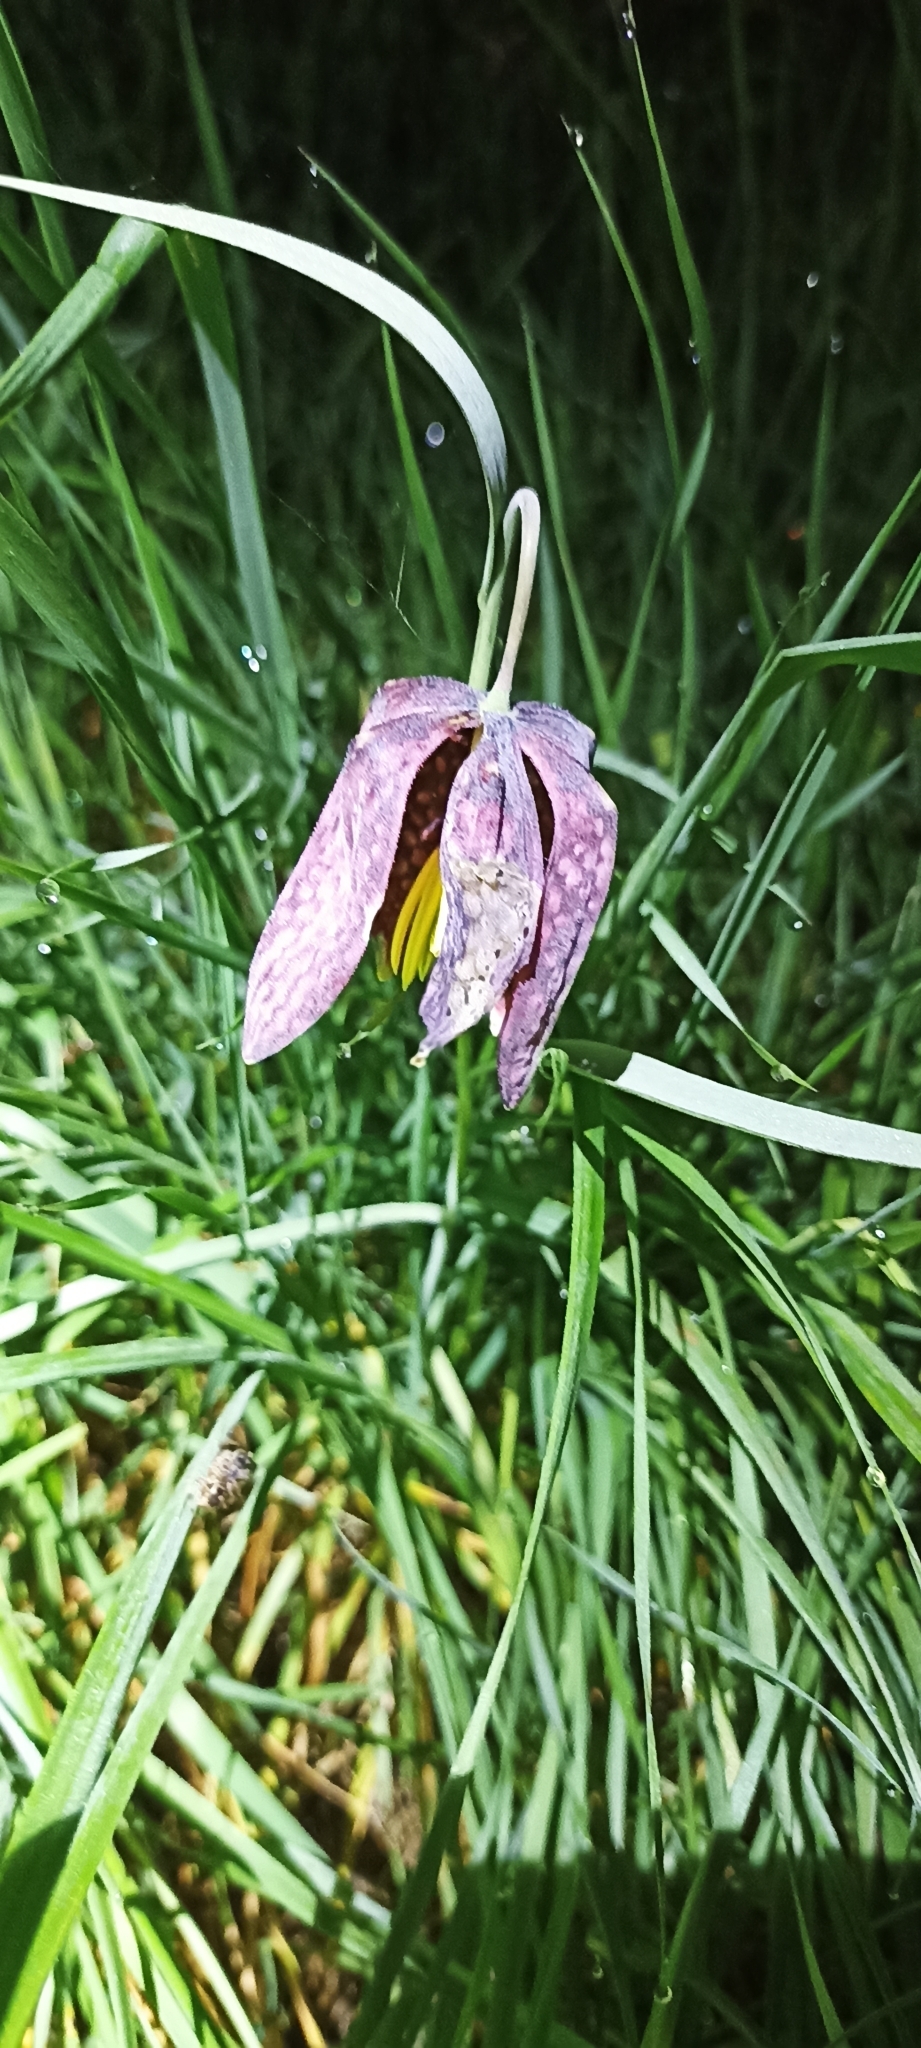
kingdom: Plantae
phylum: Tracheophyta
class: Liliopsida
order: Liliales
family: Liliaceae
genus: Fritillaria
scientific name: Fritillaria meleagris
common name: Fritillary
